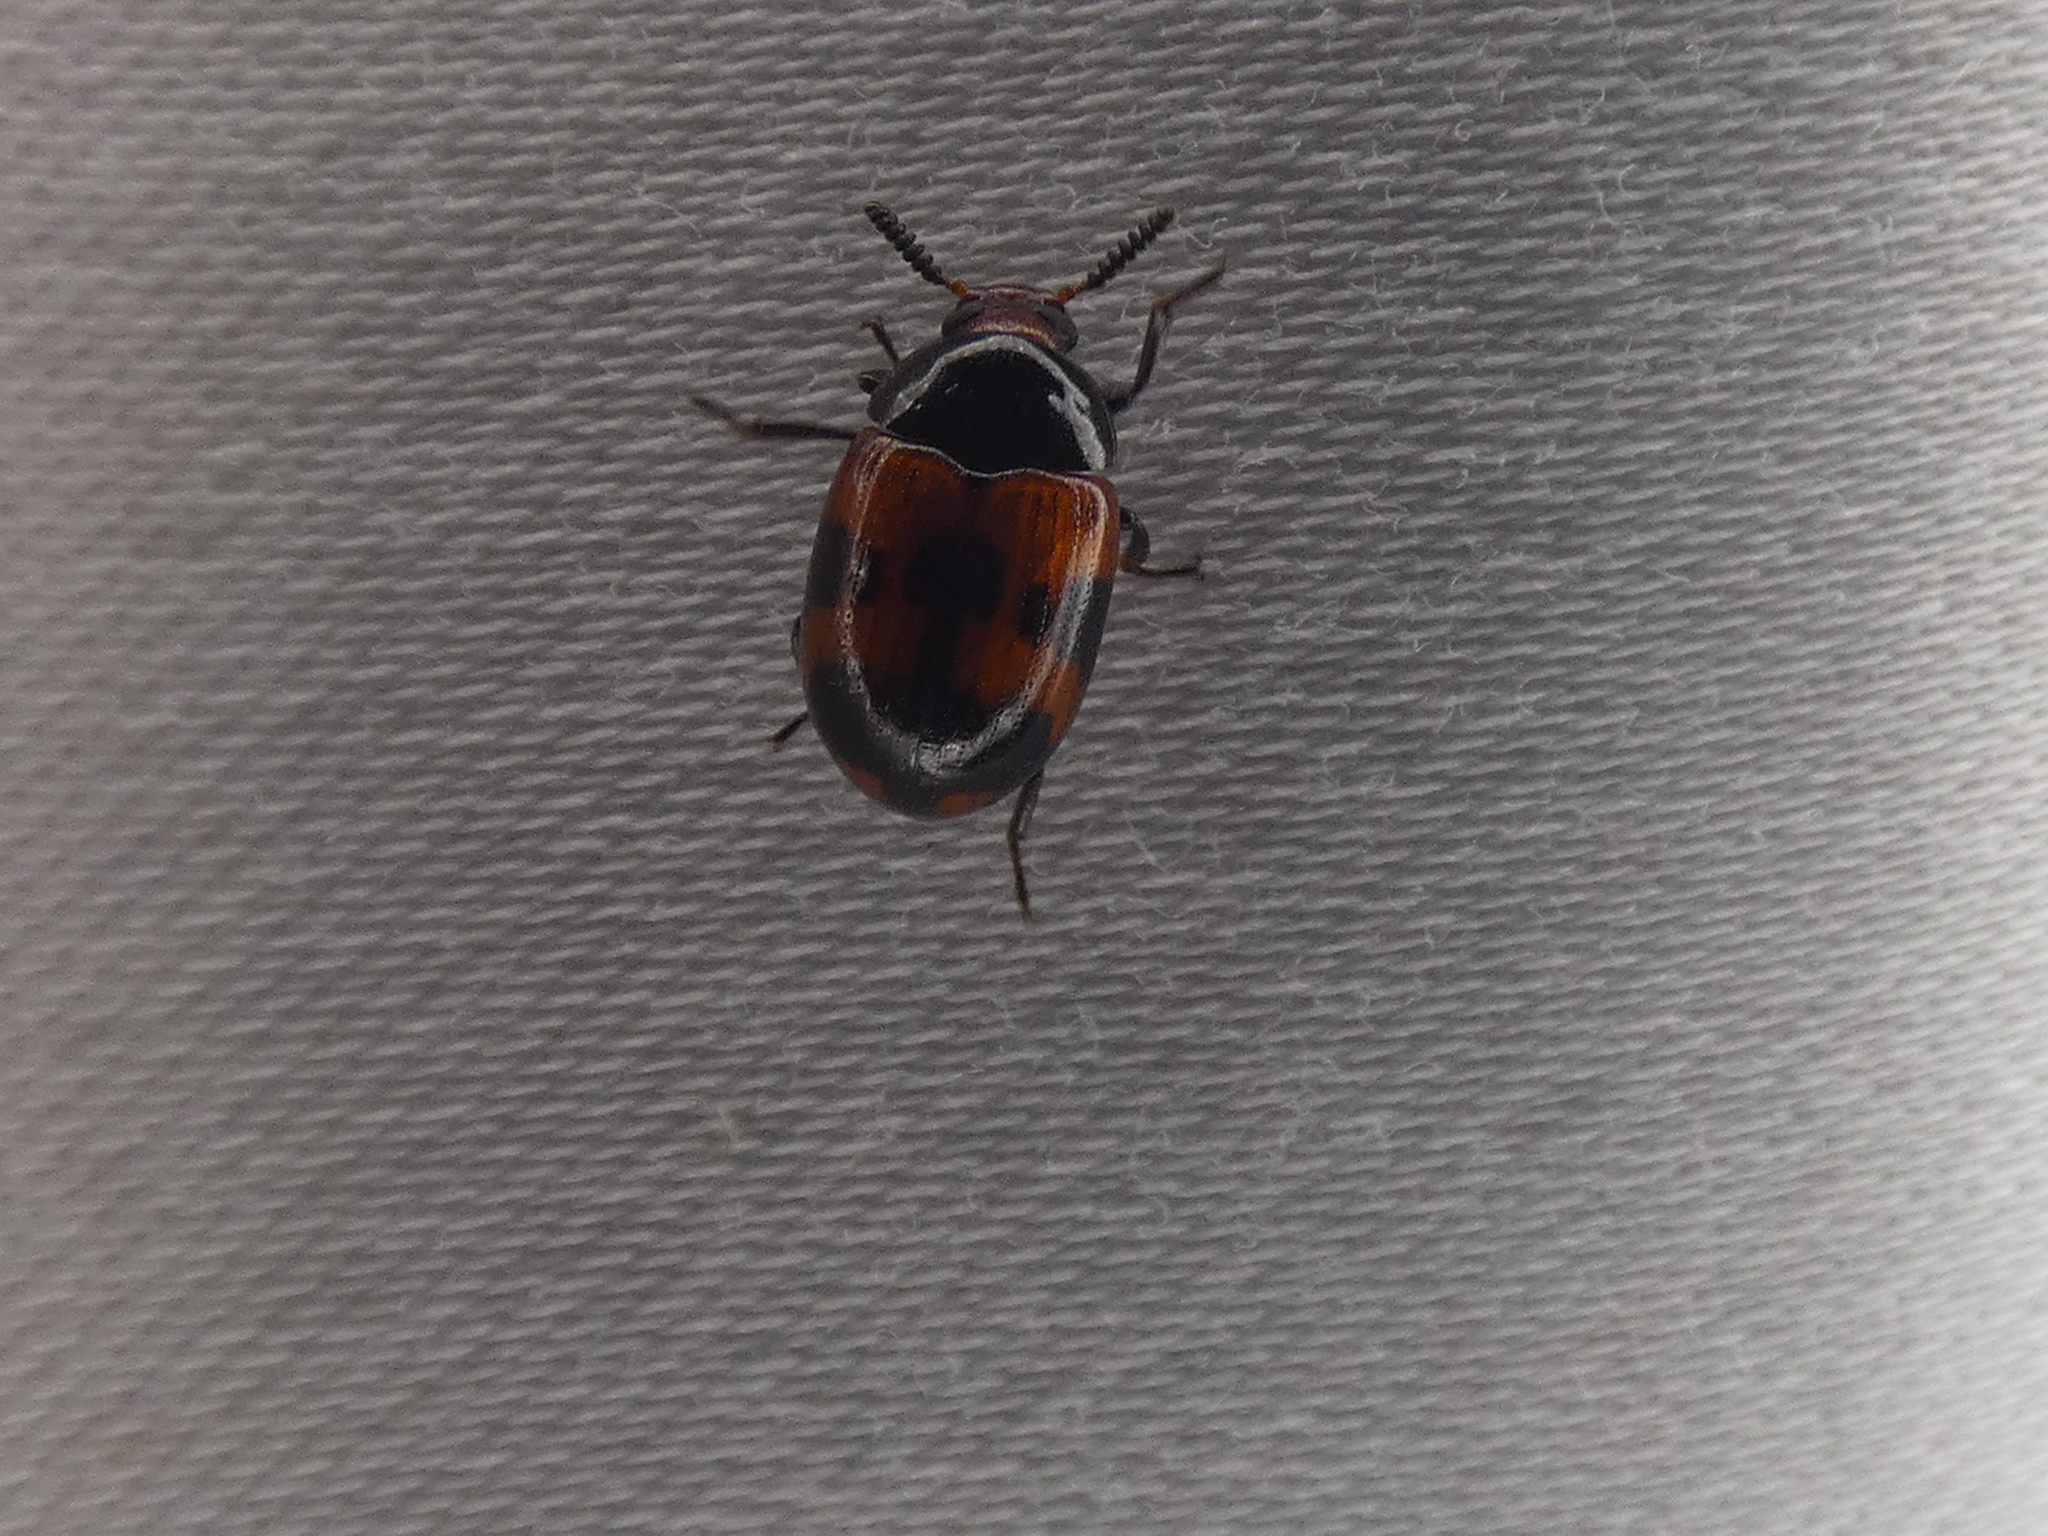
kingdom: Animalia
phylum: Arthropoda
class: Insecta
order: Coleoptera
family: Tenebrionidae
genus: Diaperis
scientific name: Diaperis nigronotata
